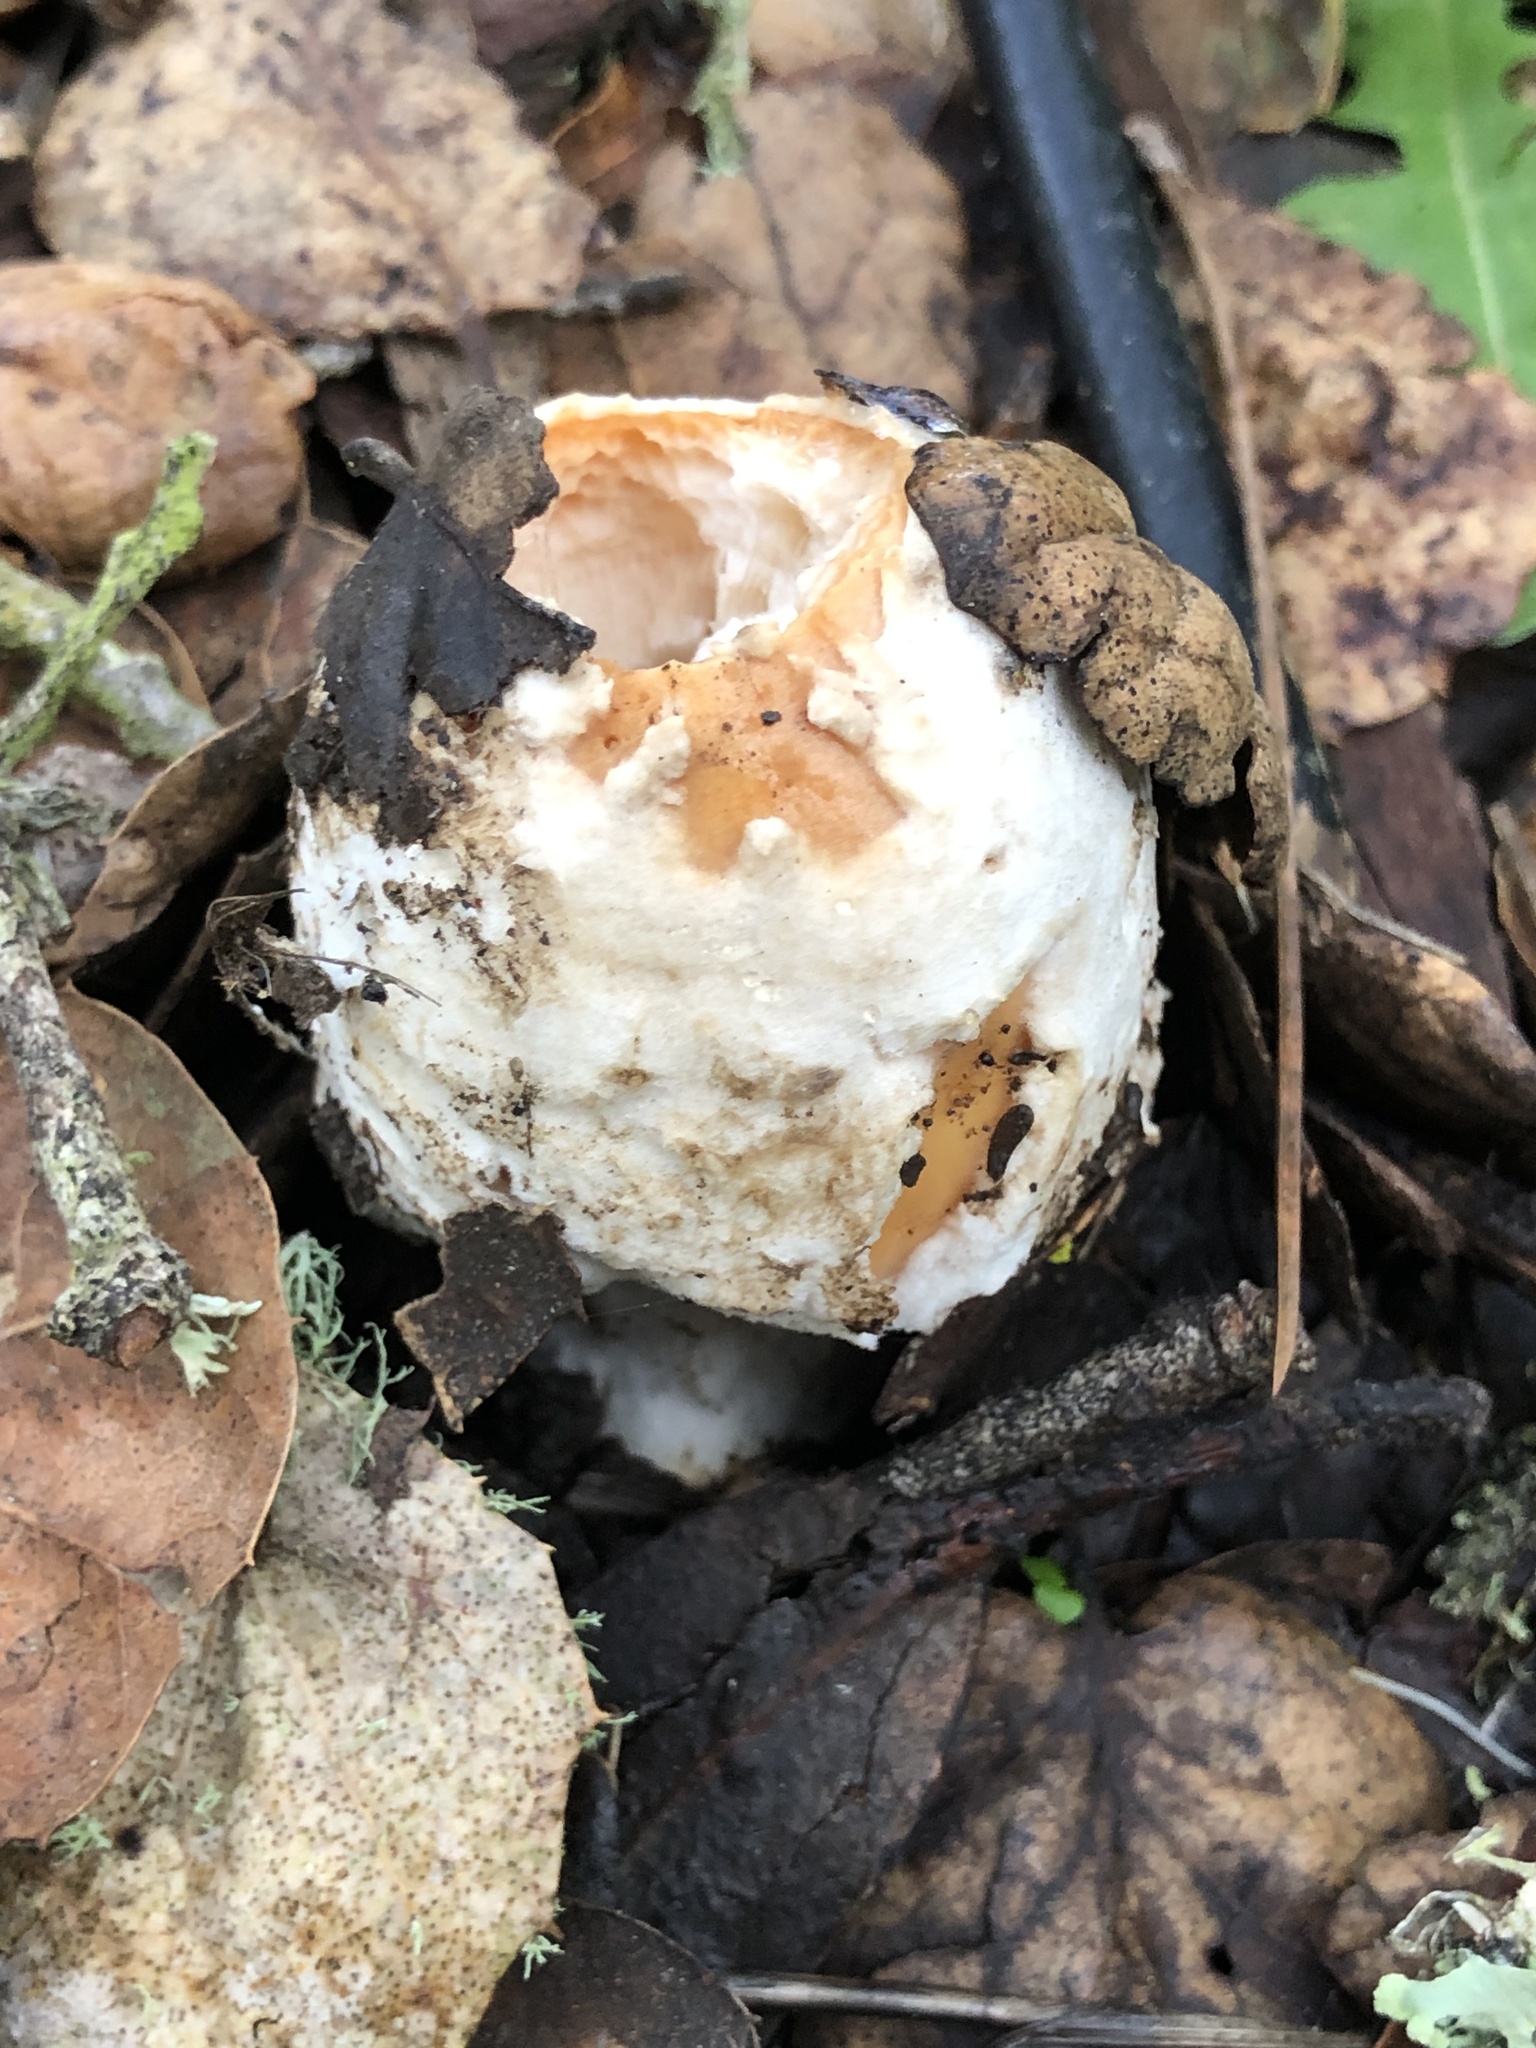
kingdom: Fungi
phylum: Basidiomycota
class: Agaricomycetes
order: Agaricales
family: Amanitaceae
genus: Amanita
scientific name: Amanita velosa
